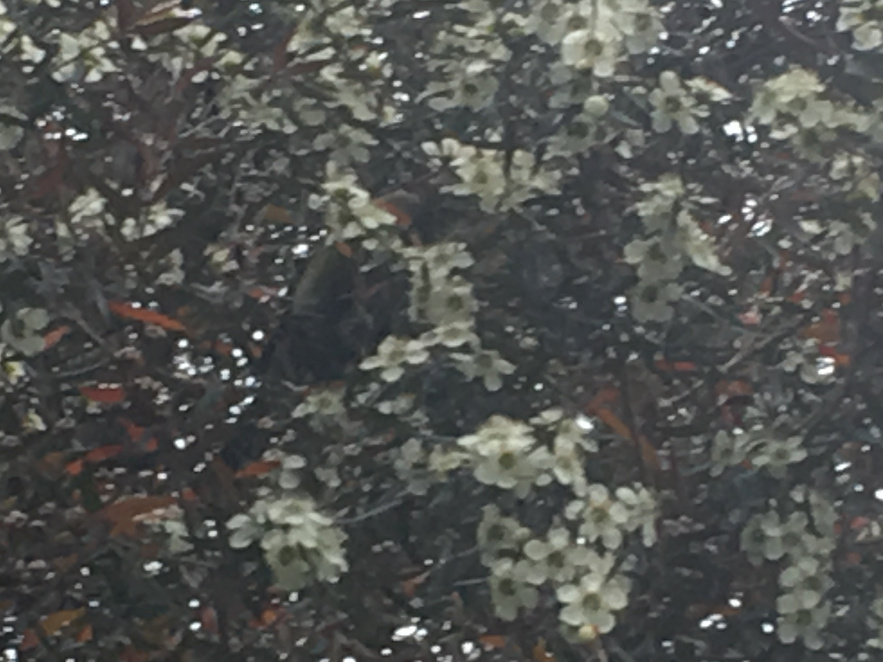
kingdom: Animalia
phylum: Chordata
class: Aves
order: Passeriformes
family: Meliphagidae
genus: Anthornis
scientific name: Anthornis melanura
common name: New zealand bellbird
